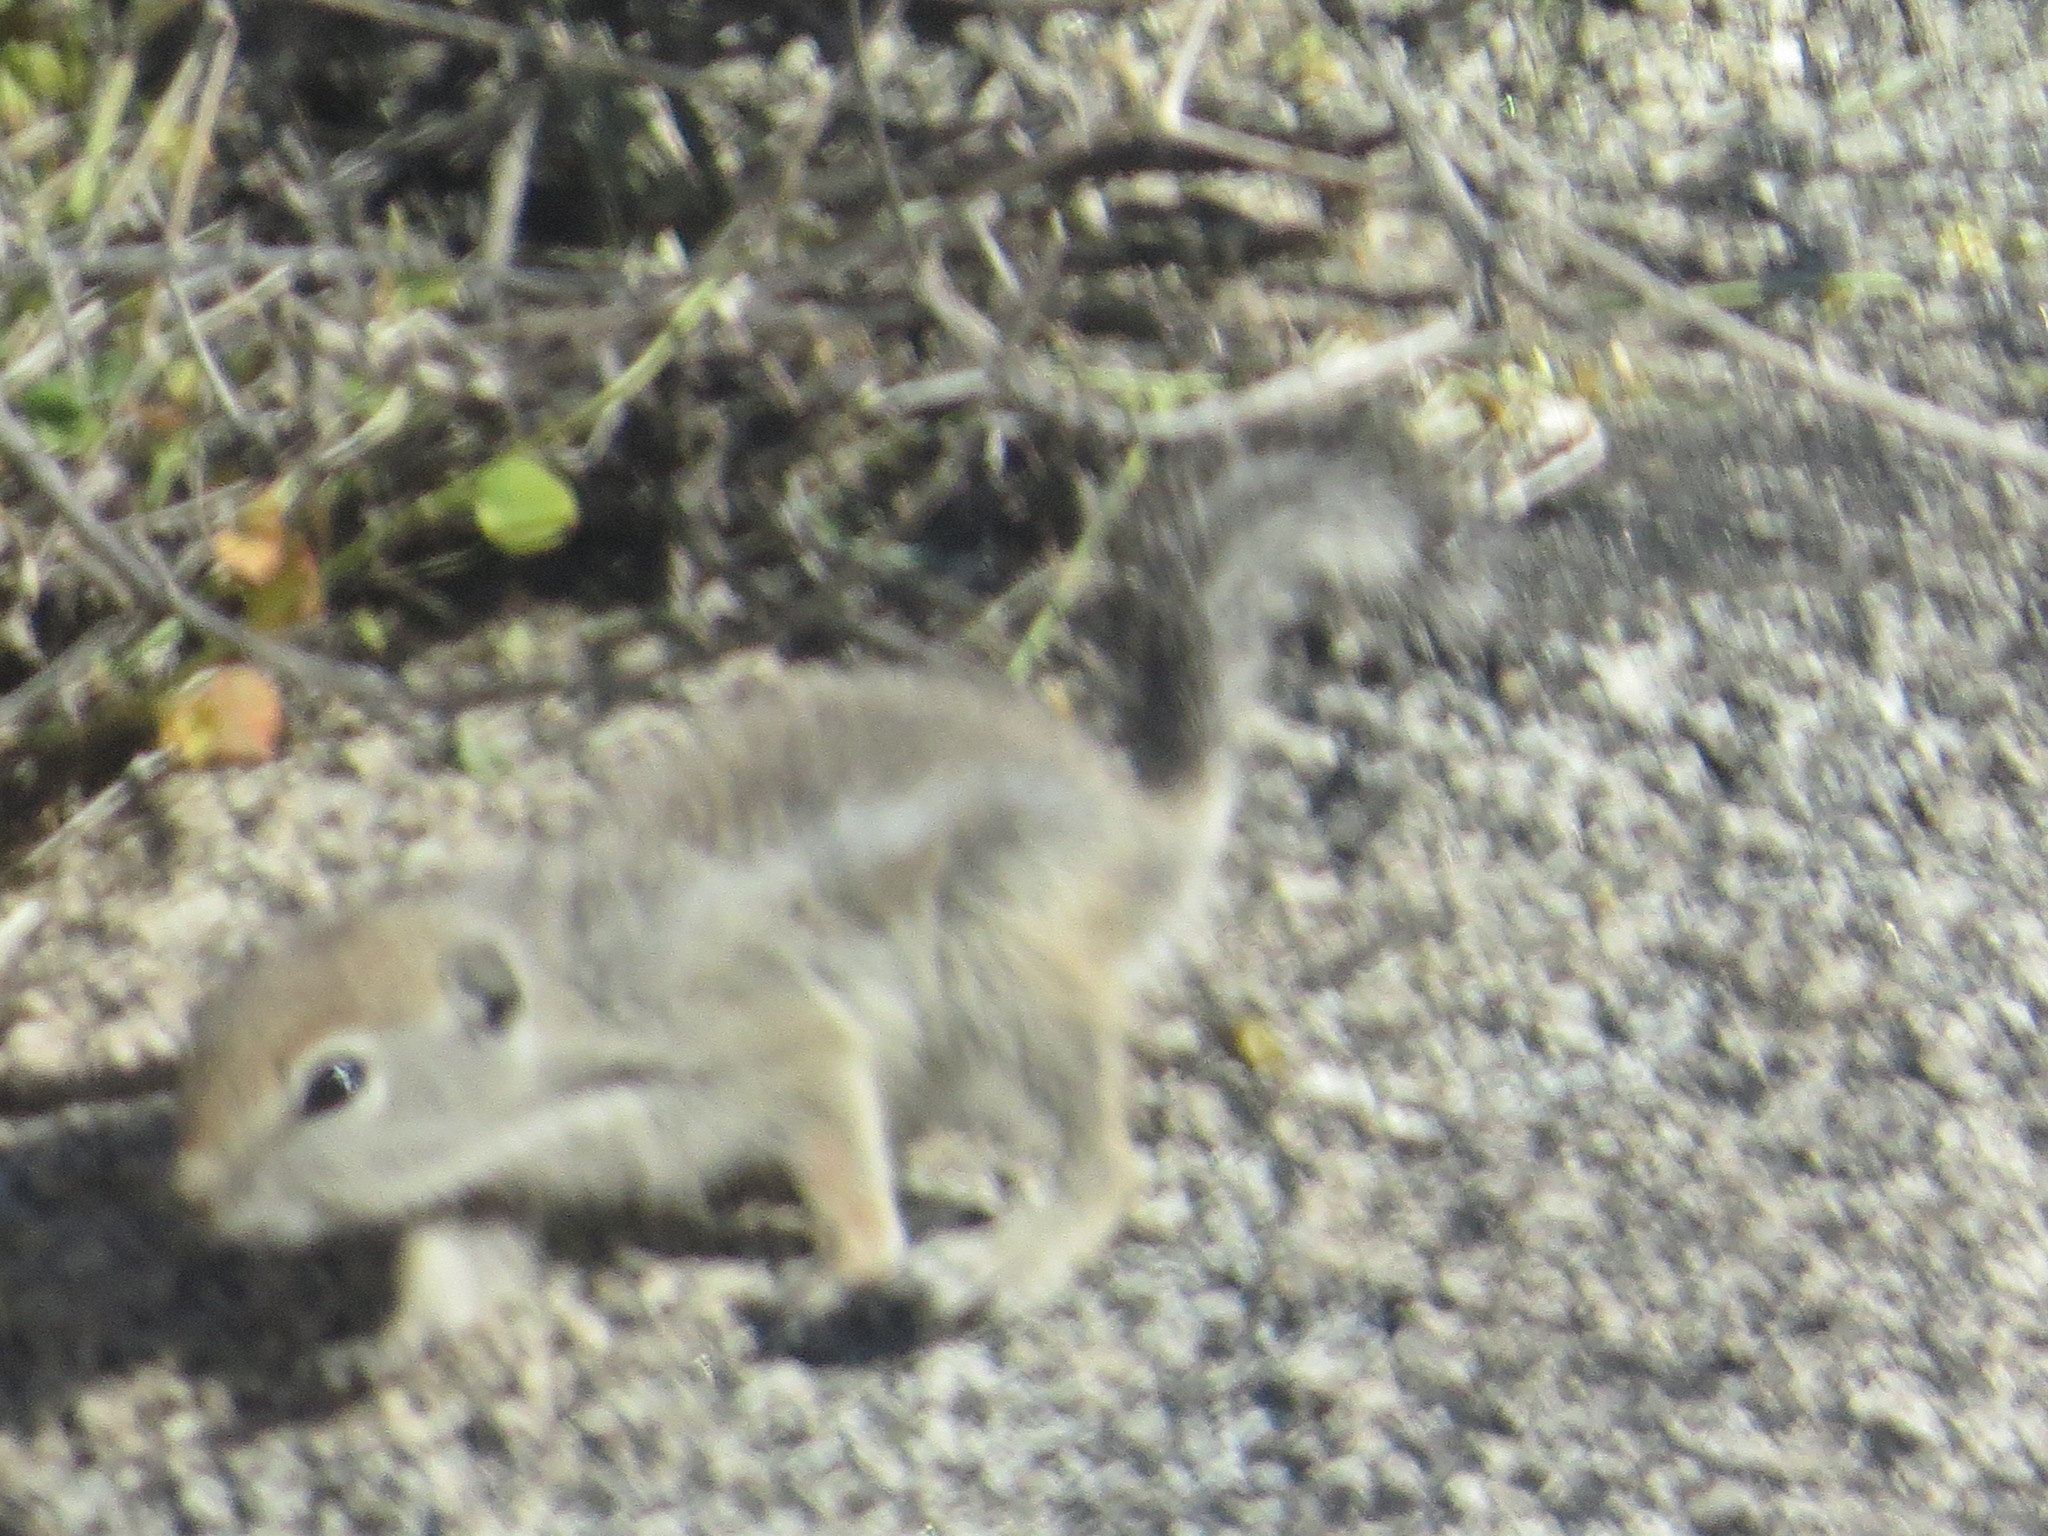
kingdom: Animalia
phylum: Chordata
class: Mammalia
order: Rodentia
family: Sciuridae
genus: Ammospermophilus
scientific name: Ammospermophilus leucurus
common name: White-tailed antelope squirrel
